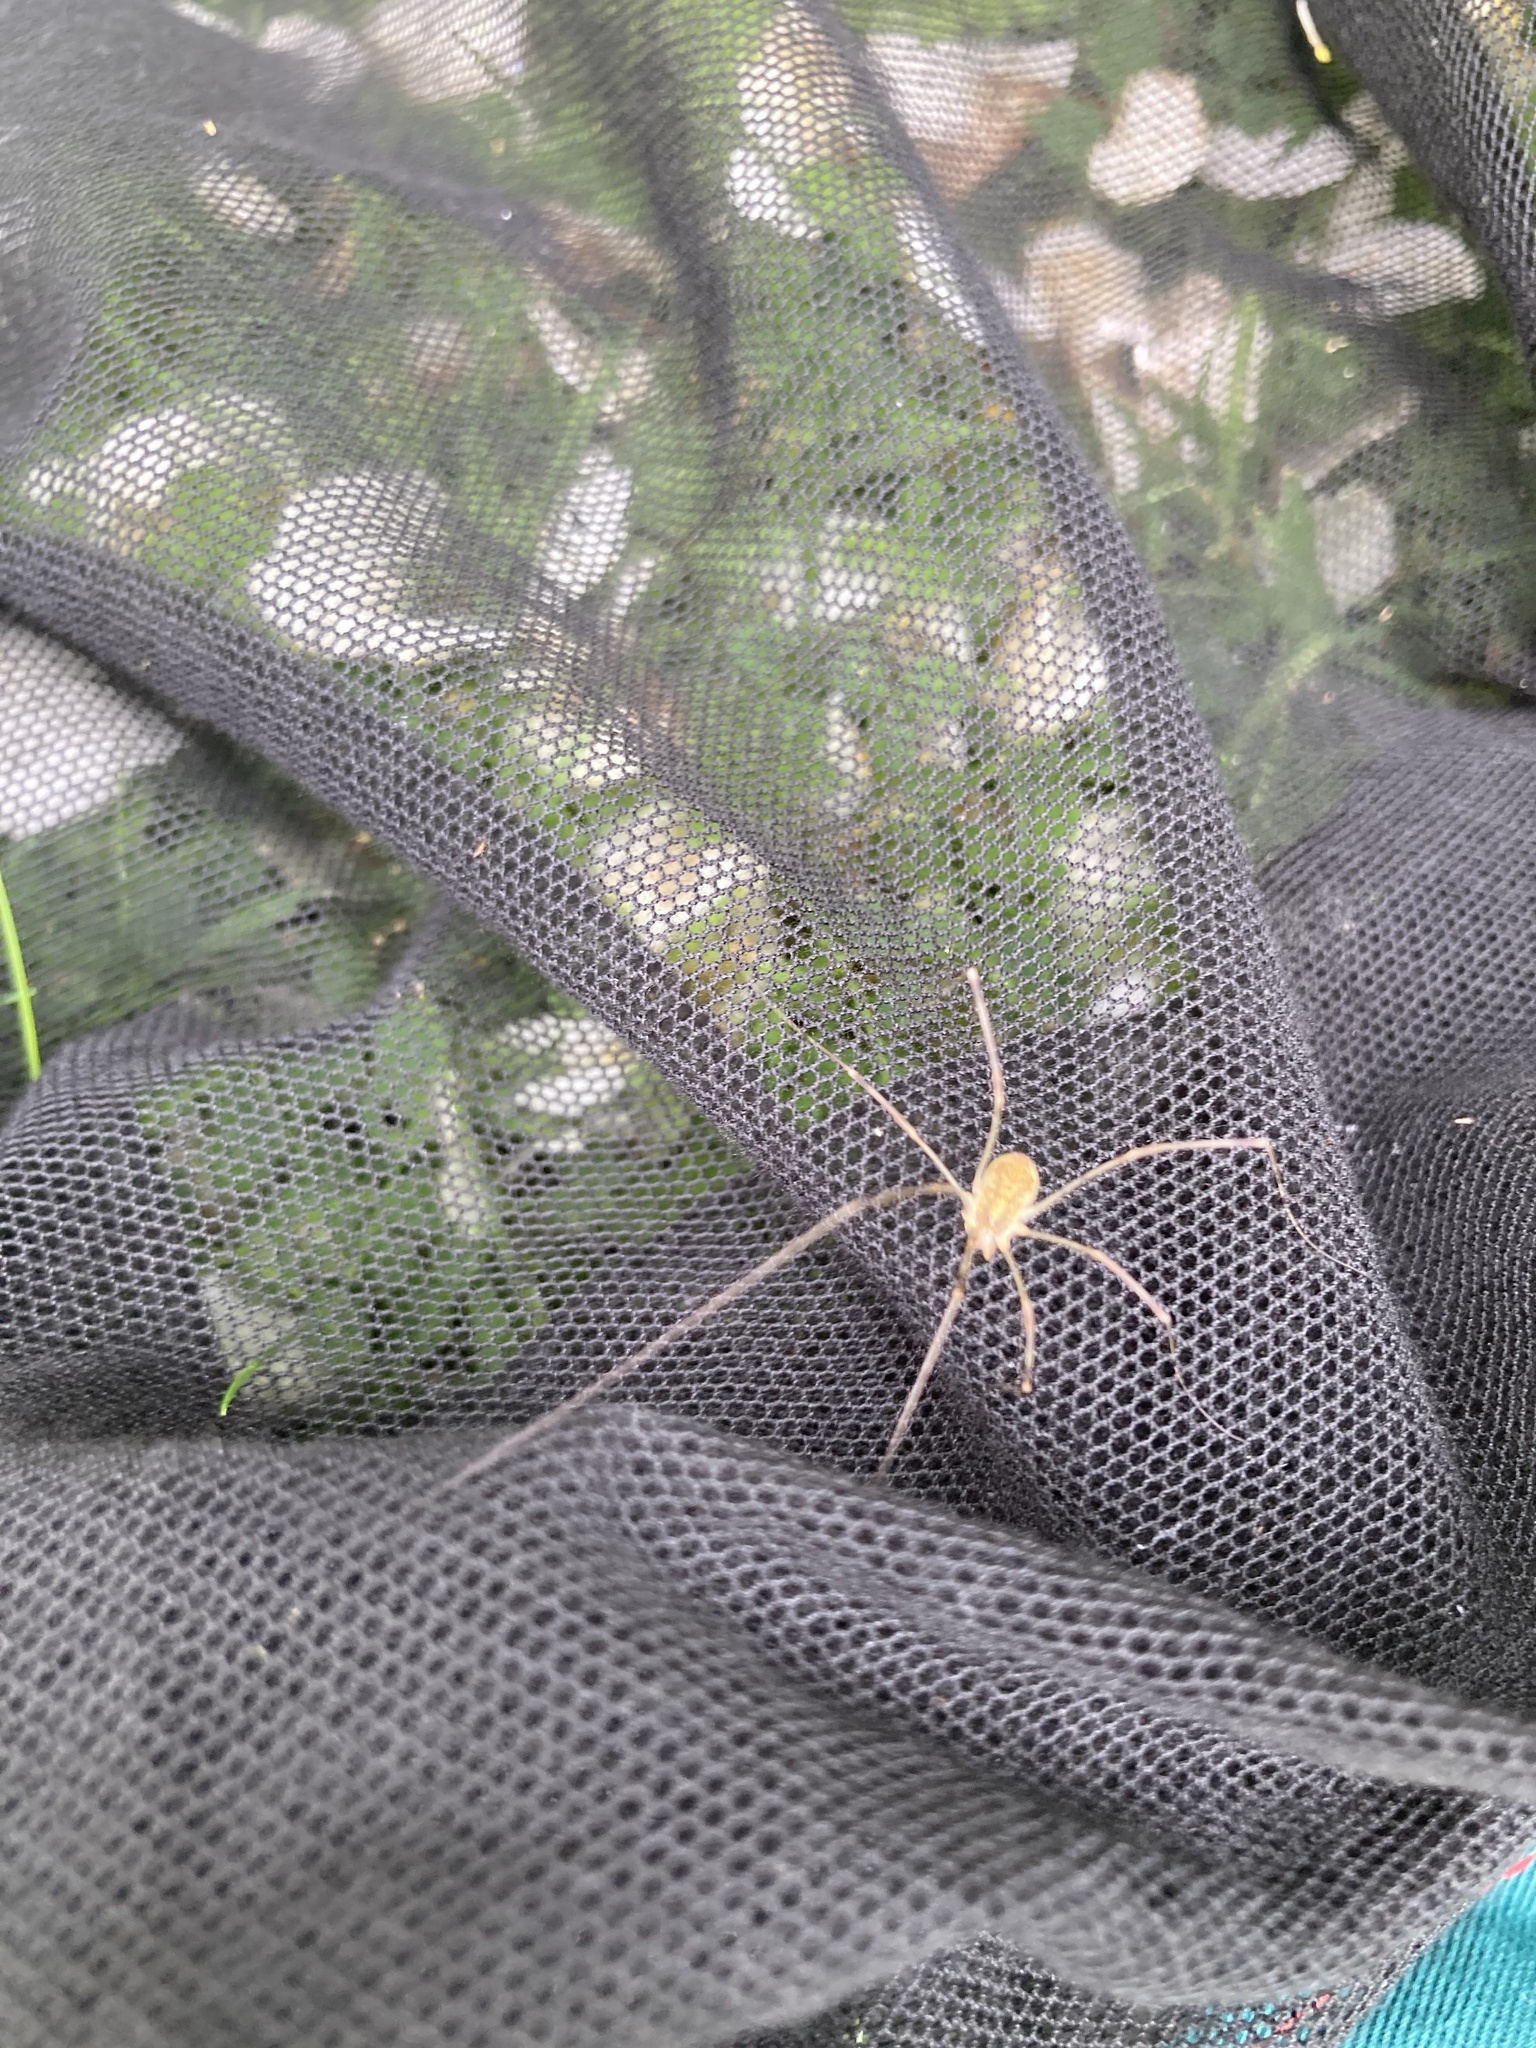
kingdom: Animalia
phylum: Arthropoda
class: Arachnida
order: Opiliones
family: Phalangiidae
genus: Opilio
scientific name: Opilio canestrinii
